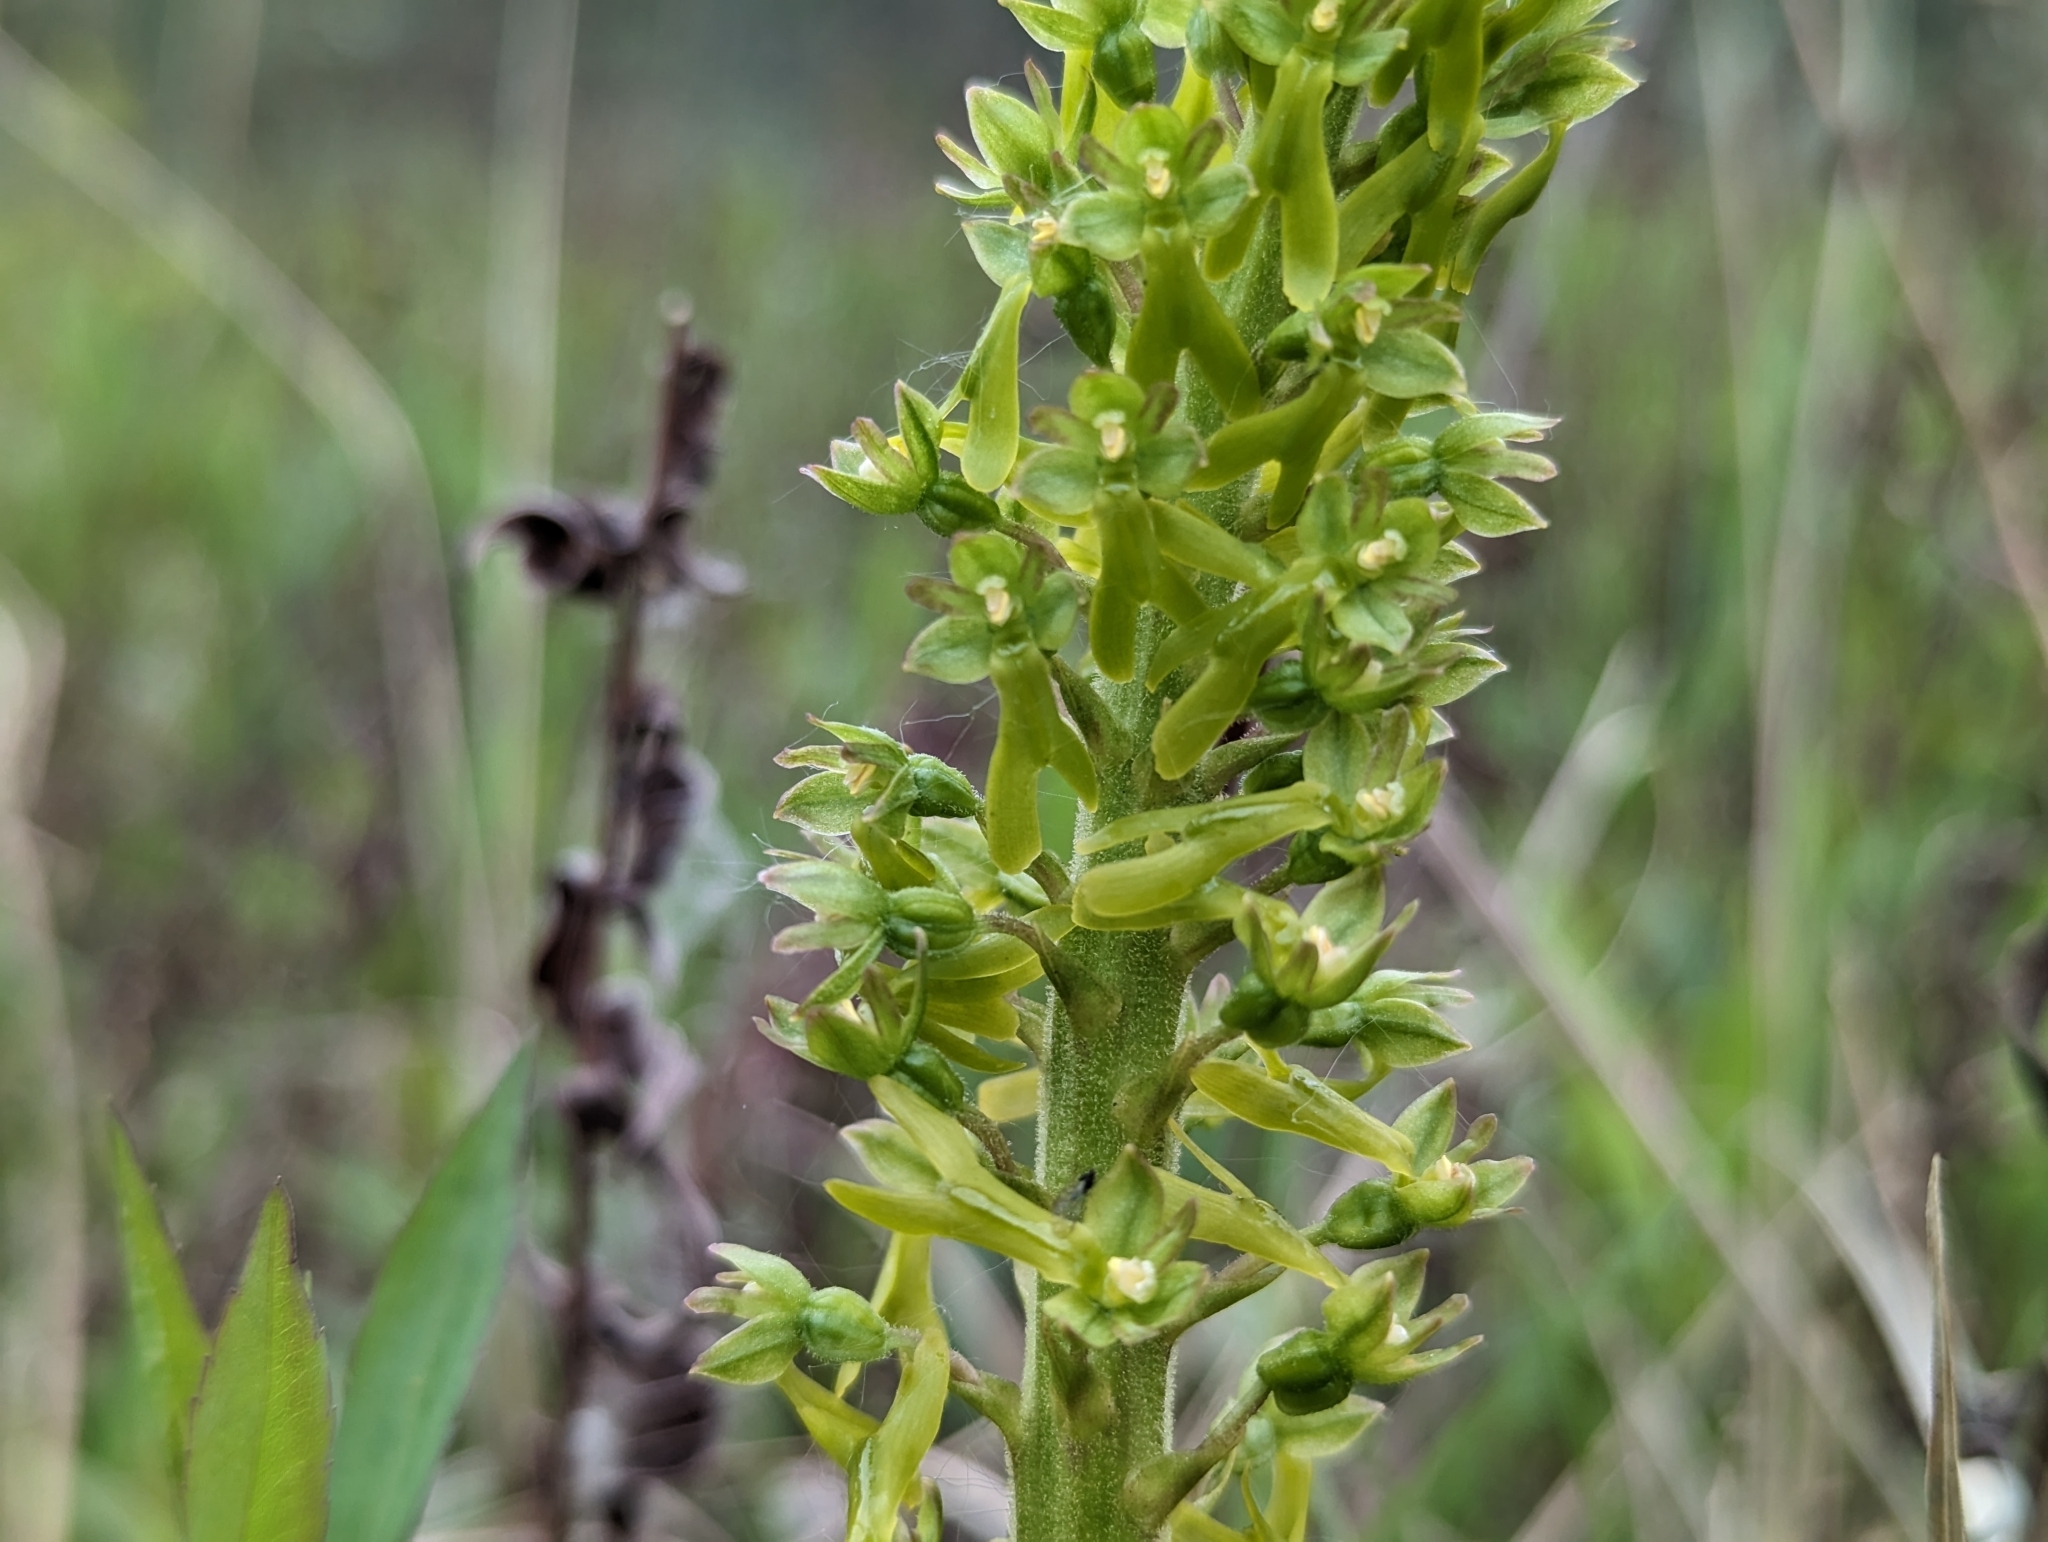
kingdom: Plantae
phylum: Tracheophyta
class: Liliopsida
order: Asparagales
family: Orchidaceae
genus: Neottia
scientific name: Neottia ovata
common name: Common twayblade
